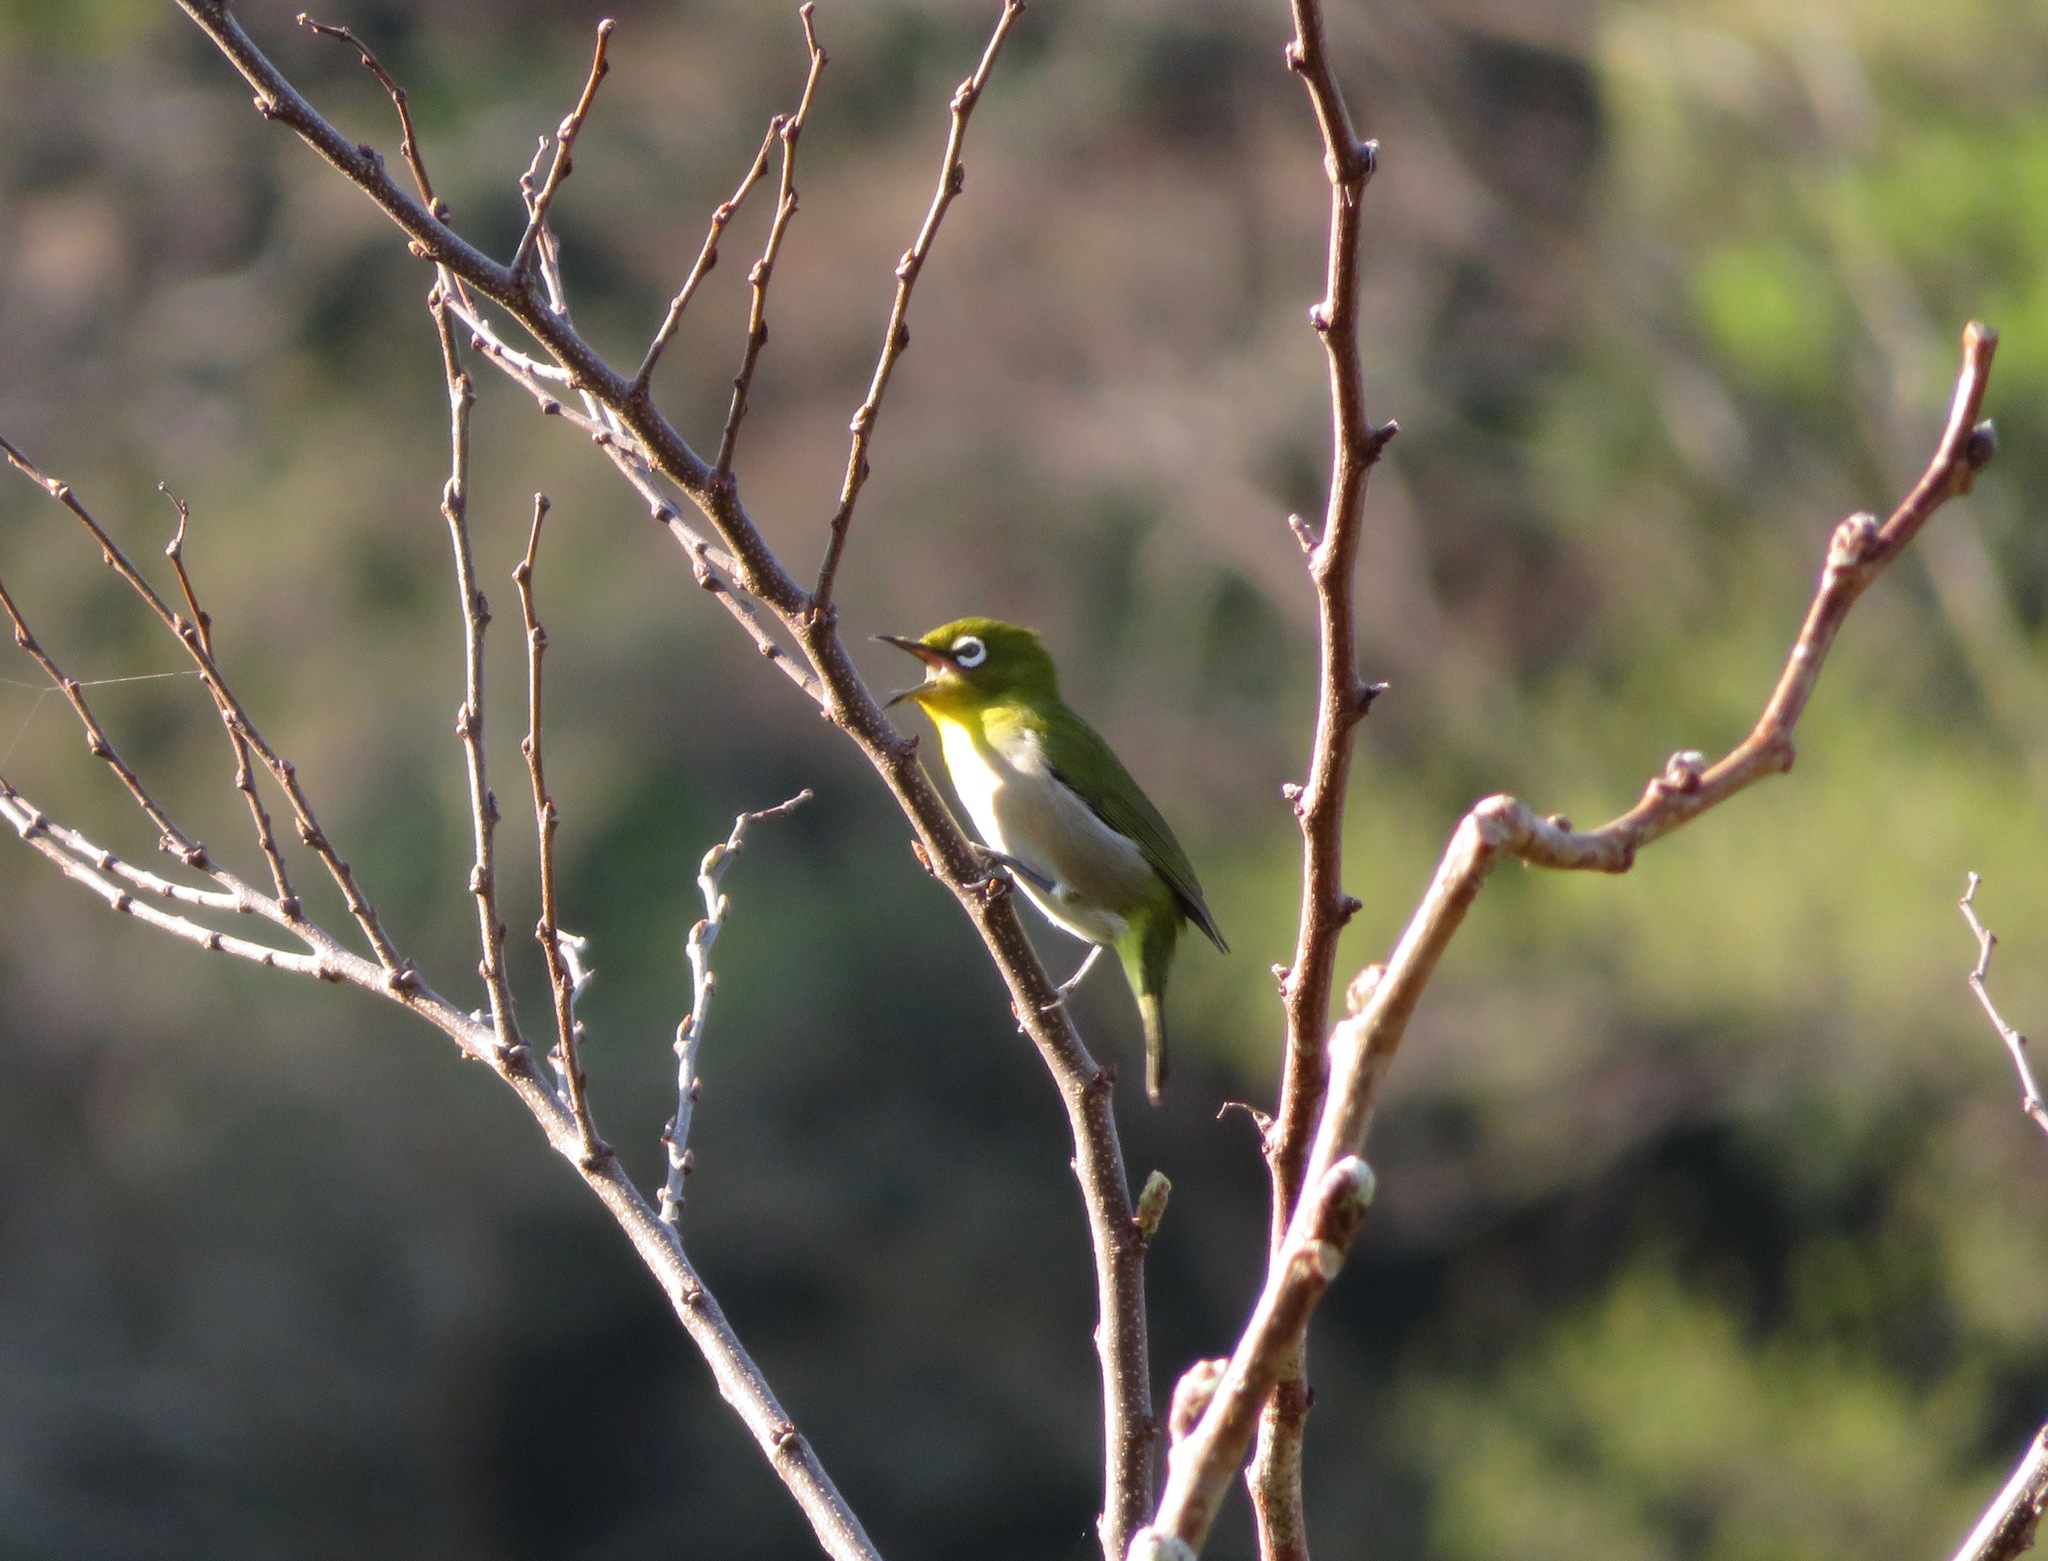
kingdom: Animalia
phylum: Chordata
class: Aves
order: Passeriformes
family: Zosteropidae
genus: Zosterops
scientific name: Zosterops japonicus
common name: Japanese white-eye
